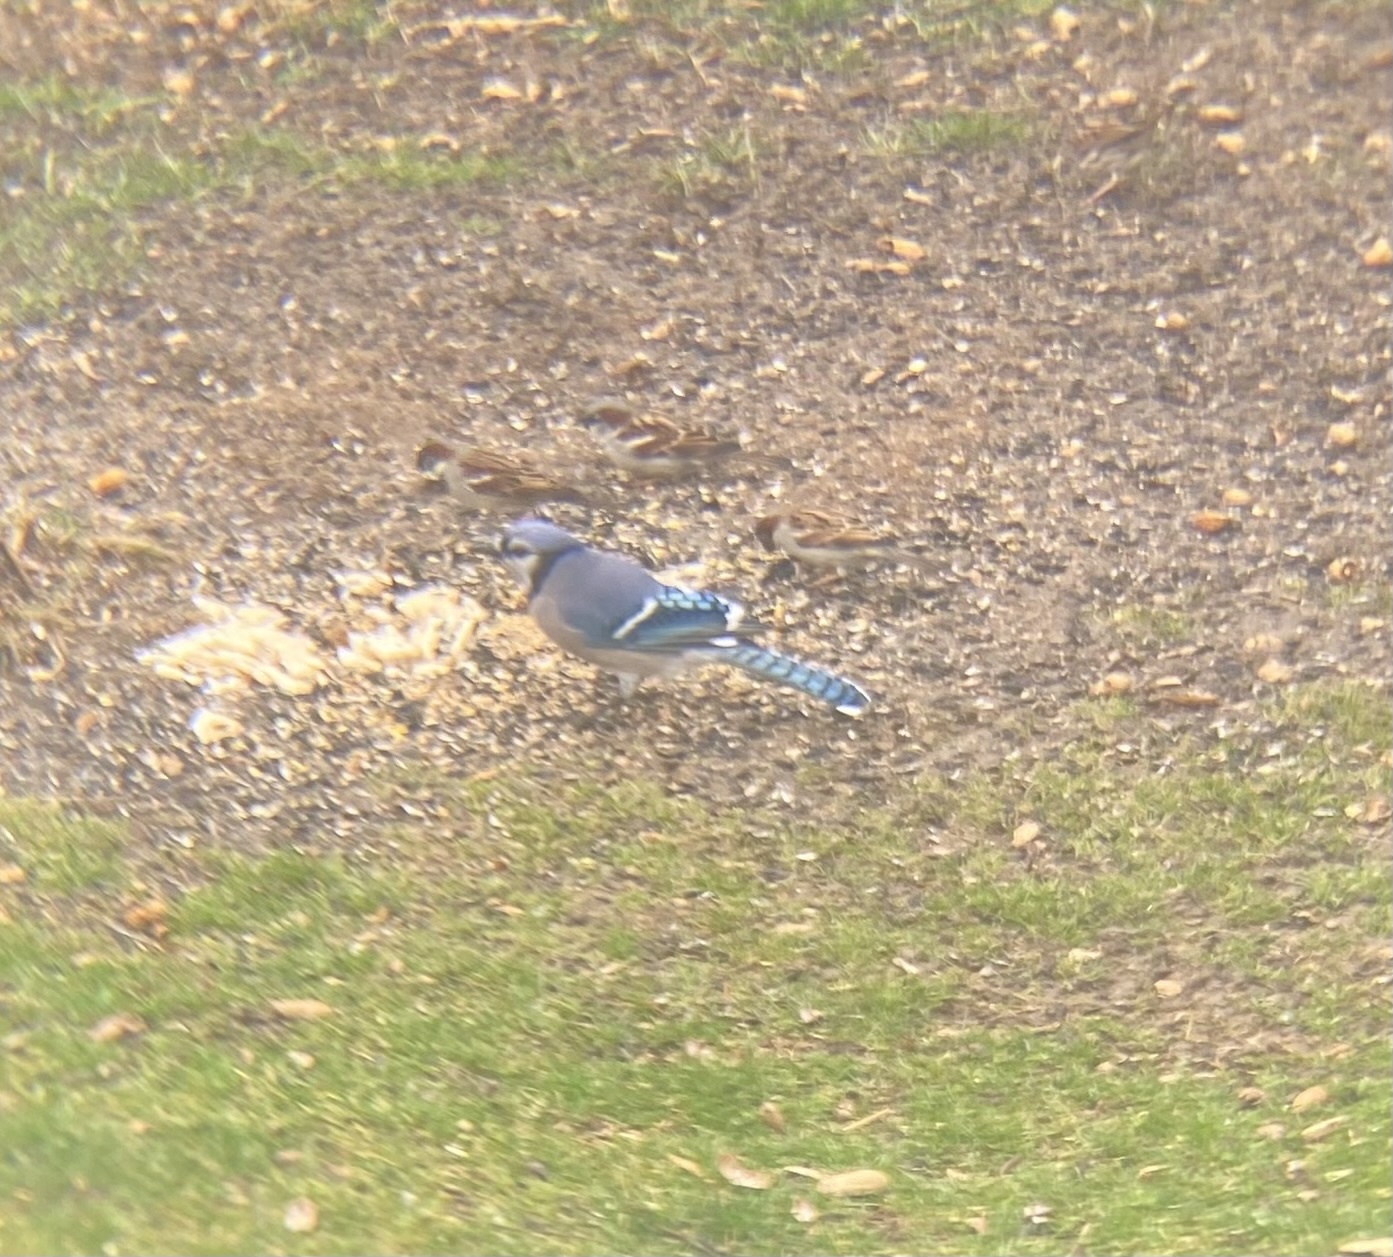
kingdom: Animalia
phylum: Chordata
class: Aves
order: Passeriformes
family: Corvidae
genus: Cyanocitta
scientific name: Cyanocitta cristata
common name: Blue jay
